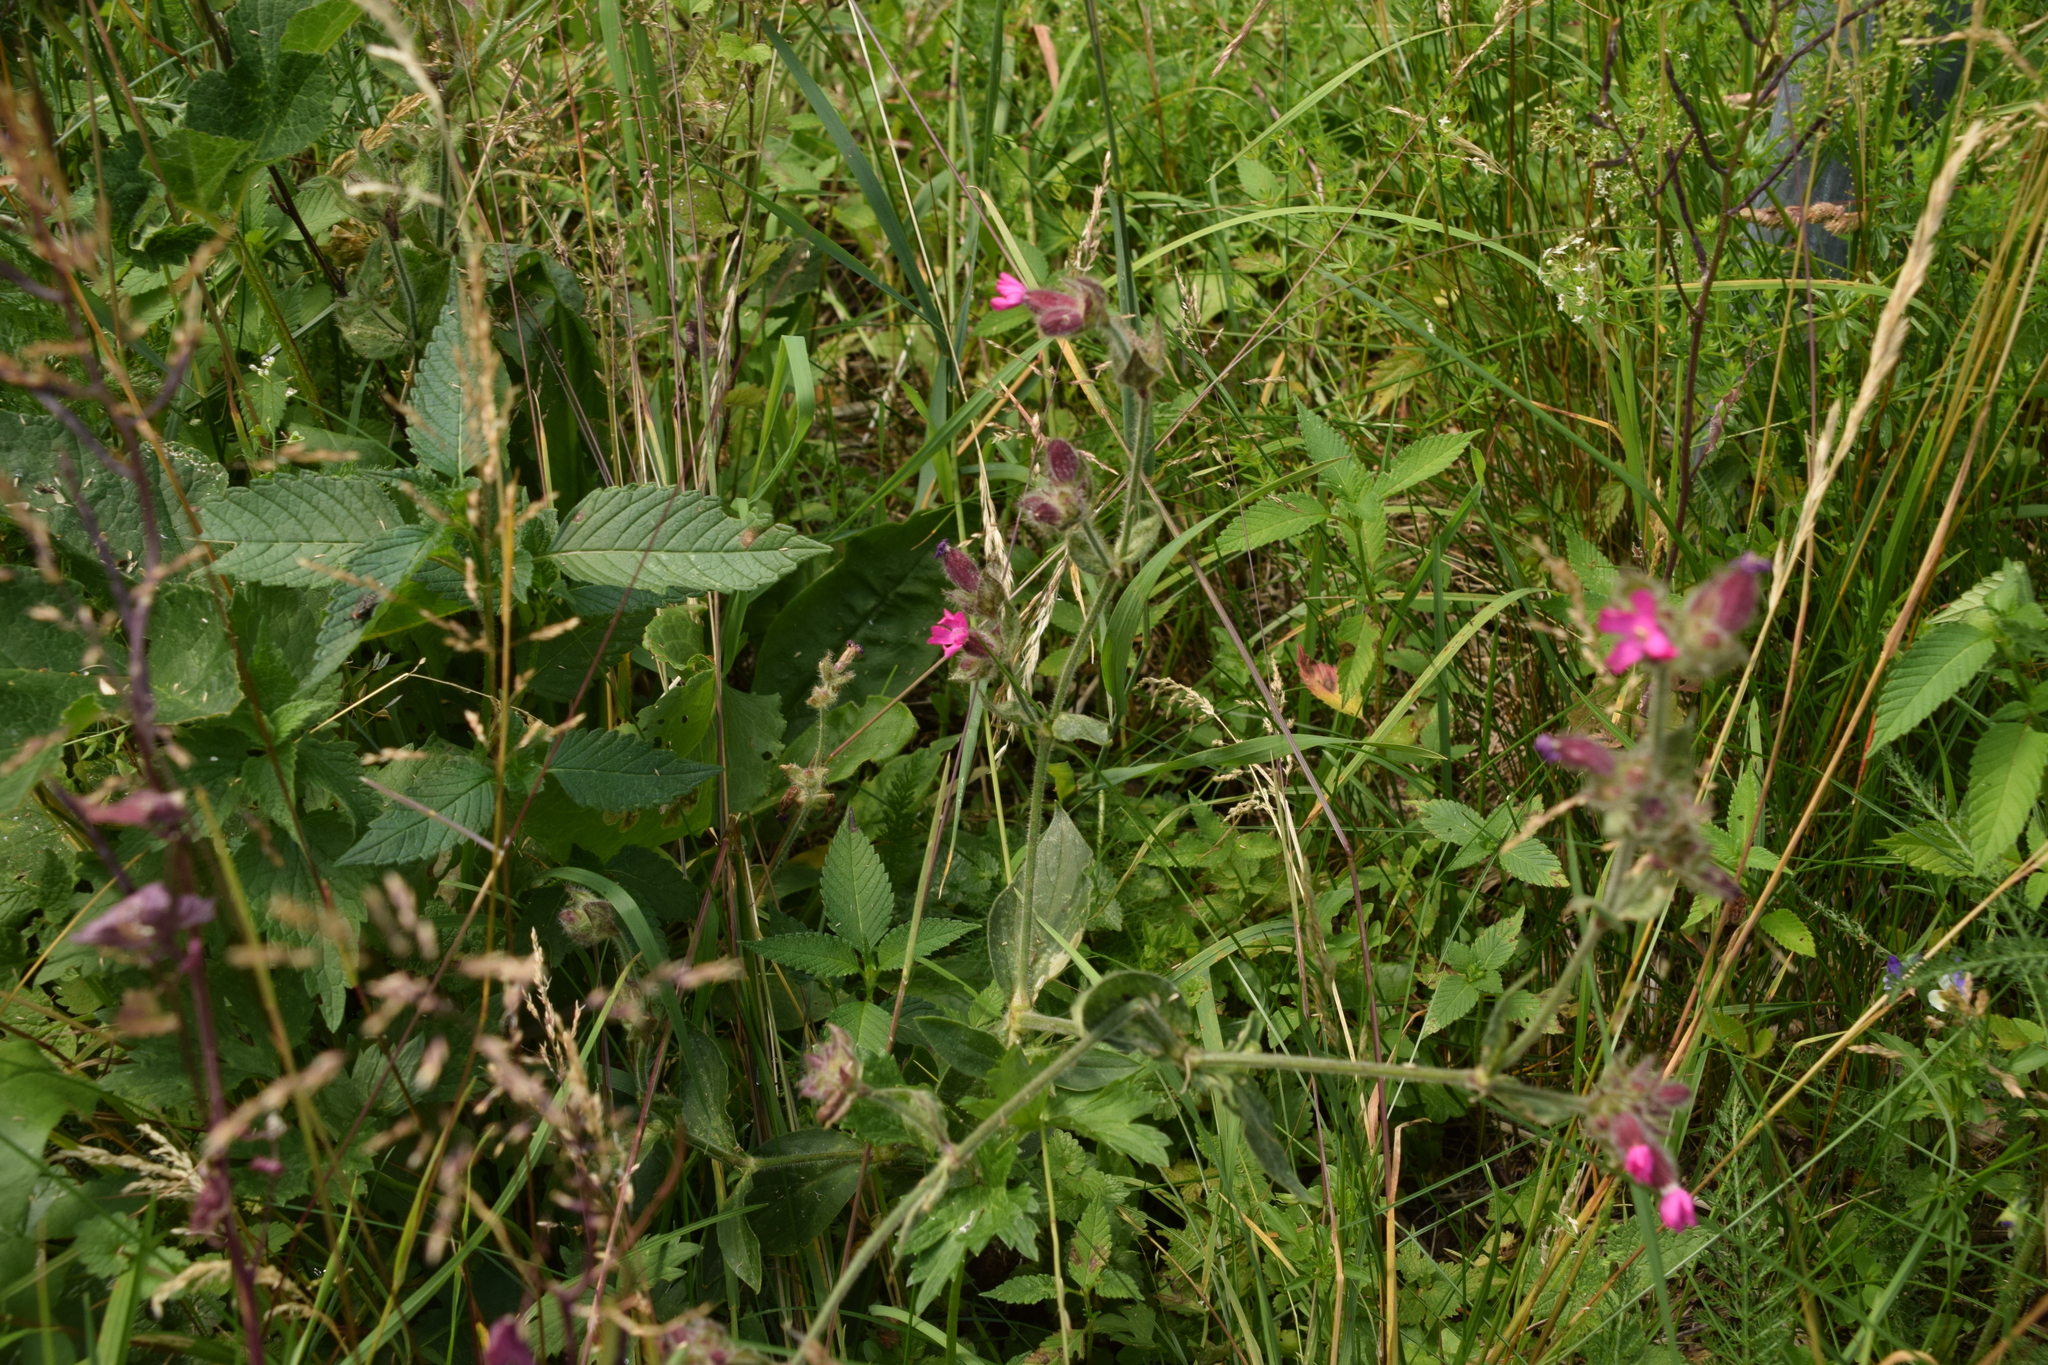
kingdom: Plantae
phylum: Tracheophyta
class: Magnoliopsida
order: Caryophyllales
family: Caryophyllaceae
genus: Silene
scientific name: Silene dioica
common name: Red campion
